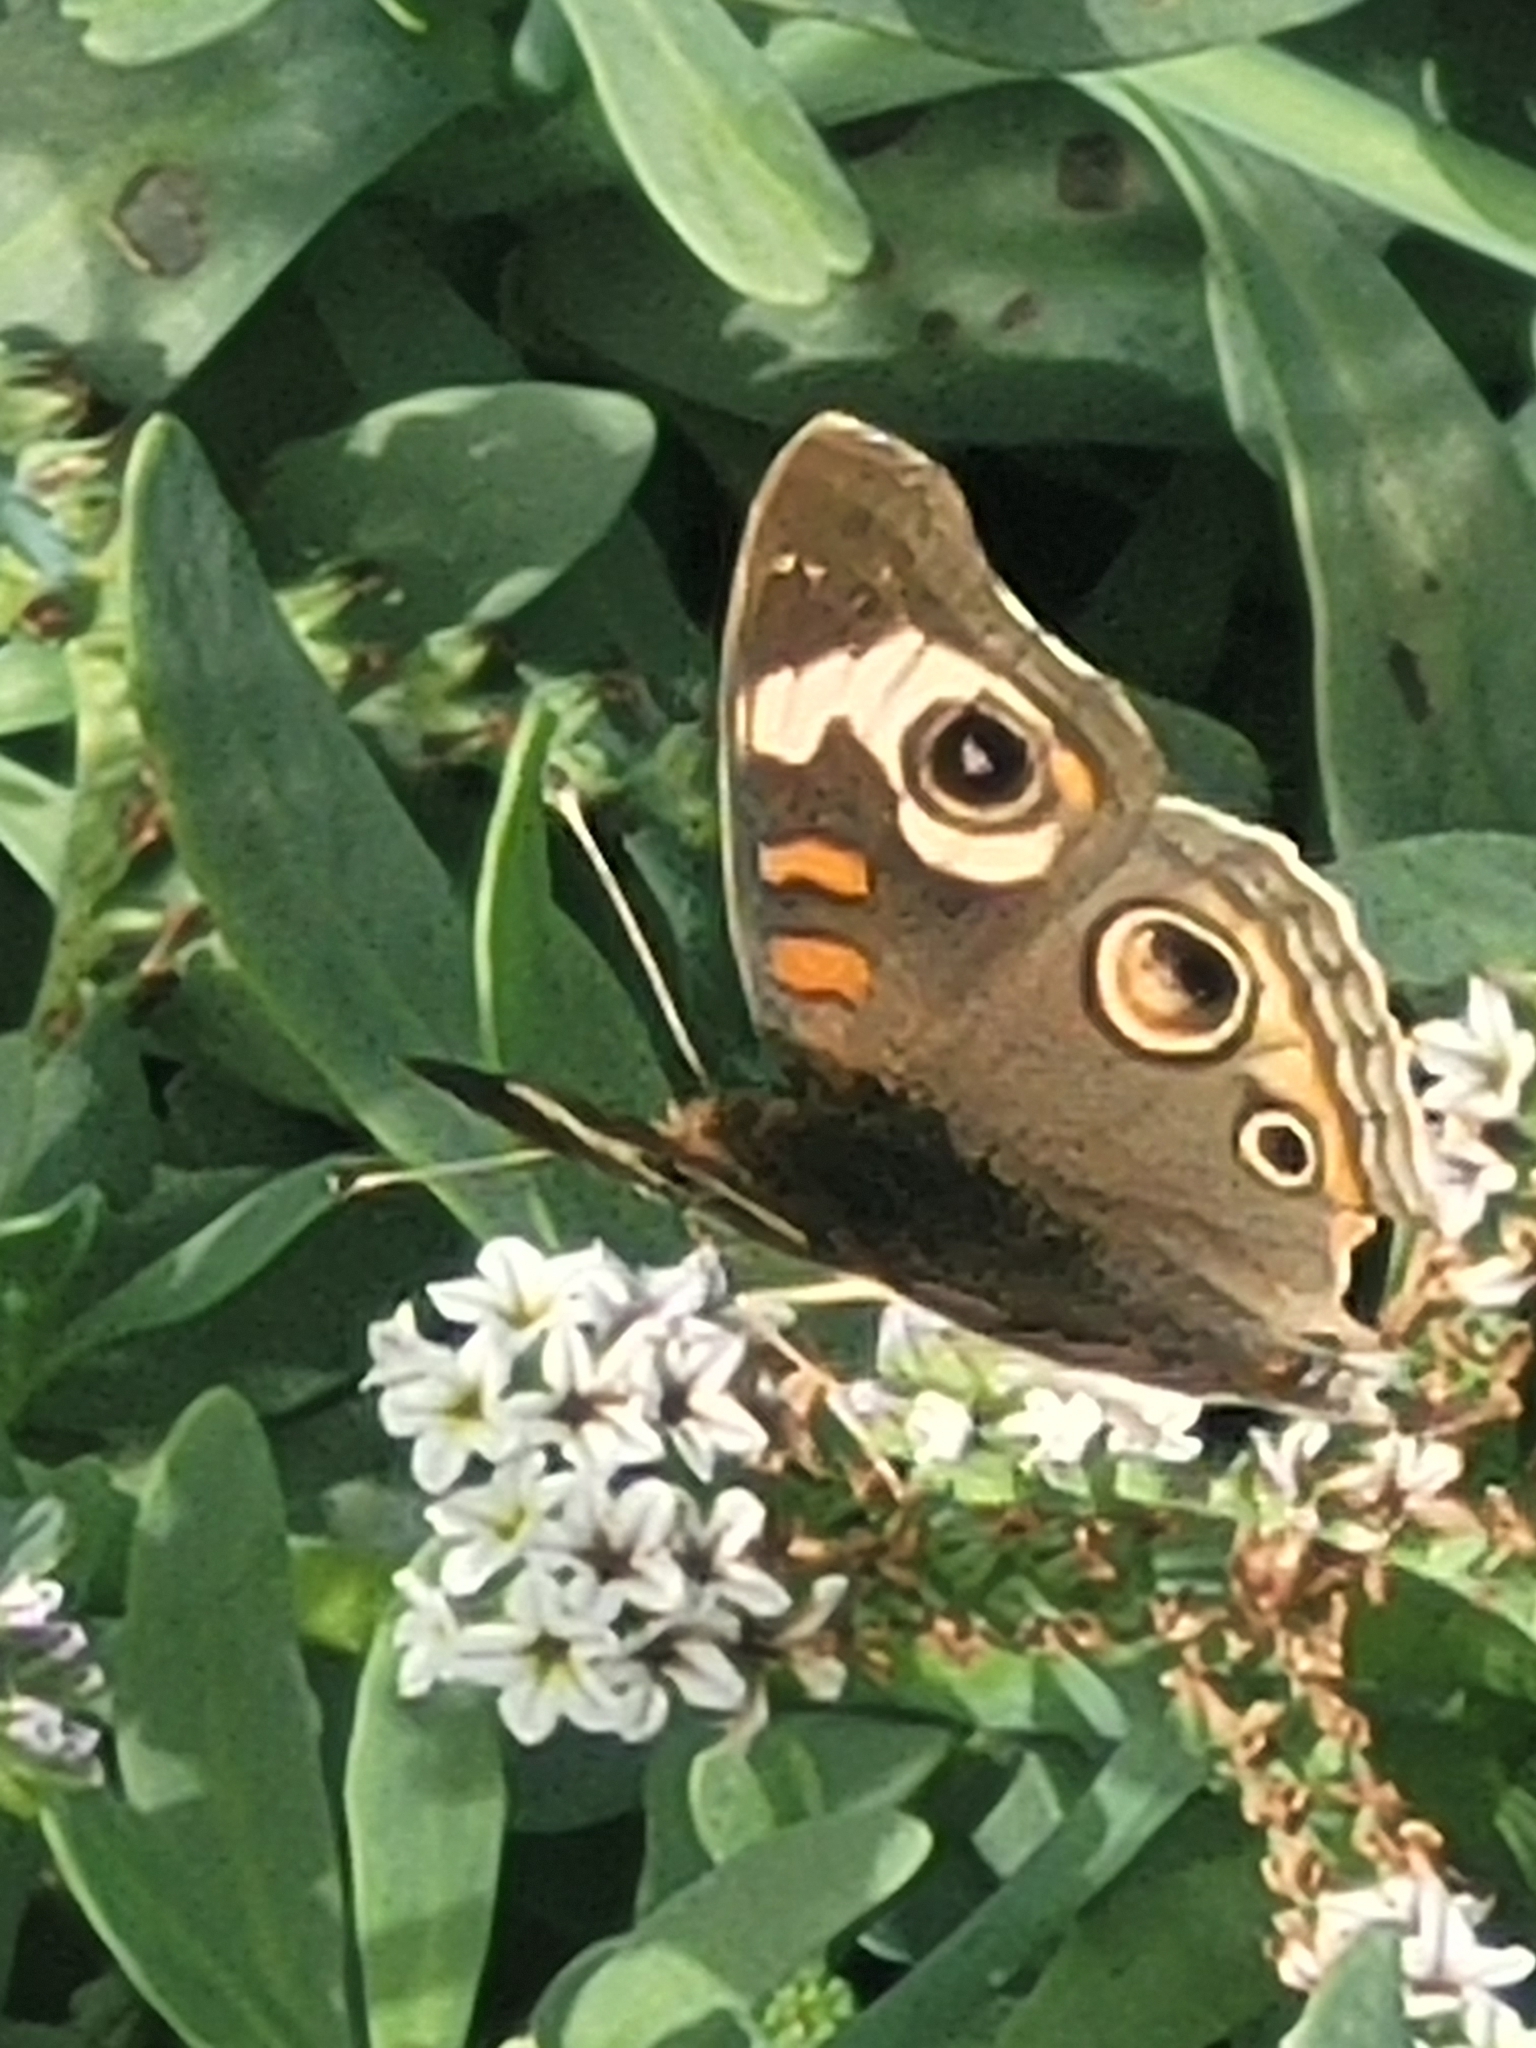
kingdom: Animalia
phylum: Arthropoda
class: Insecta
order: Lepidoptera
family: Nymphalidae
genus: Junonia
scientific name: Junonia grisea
